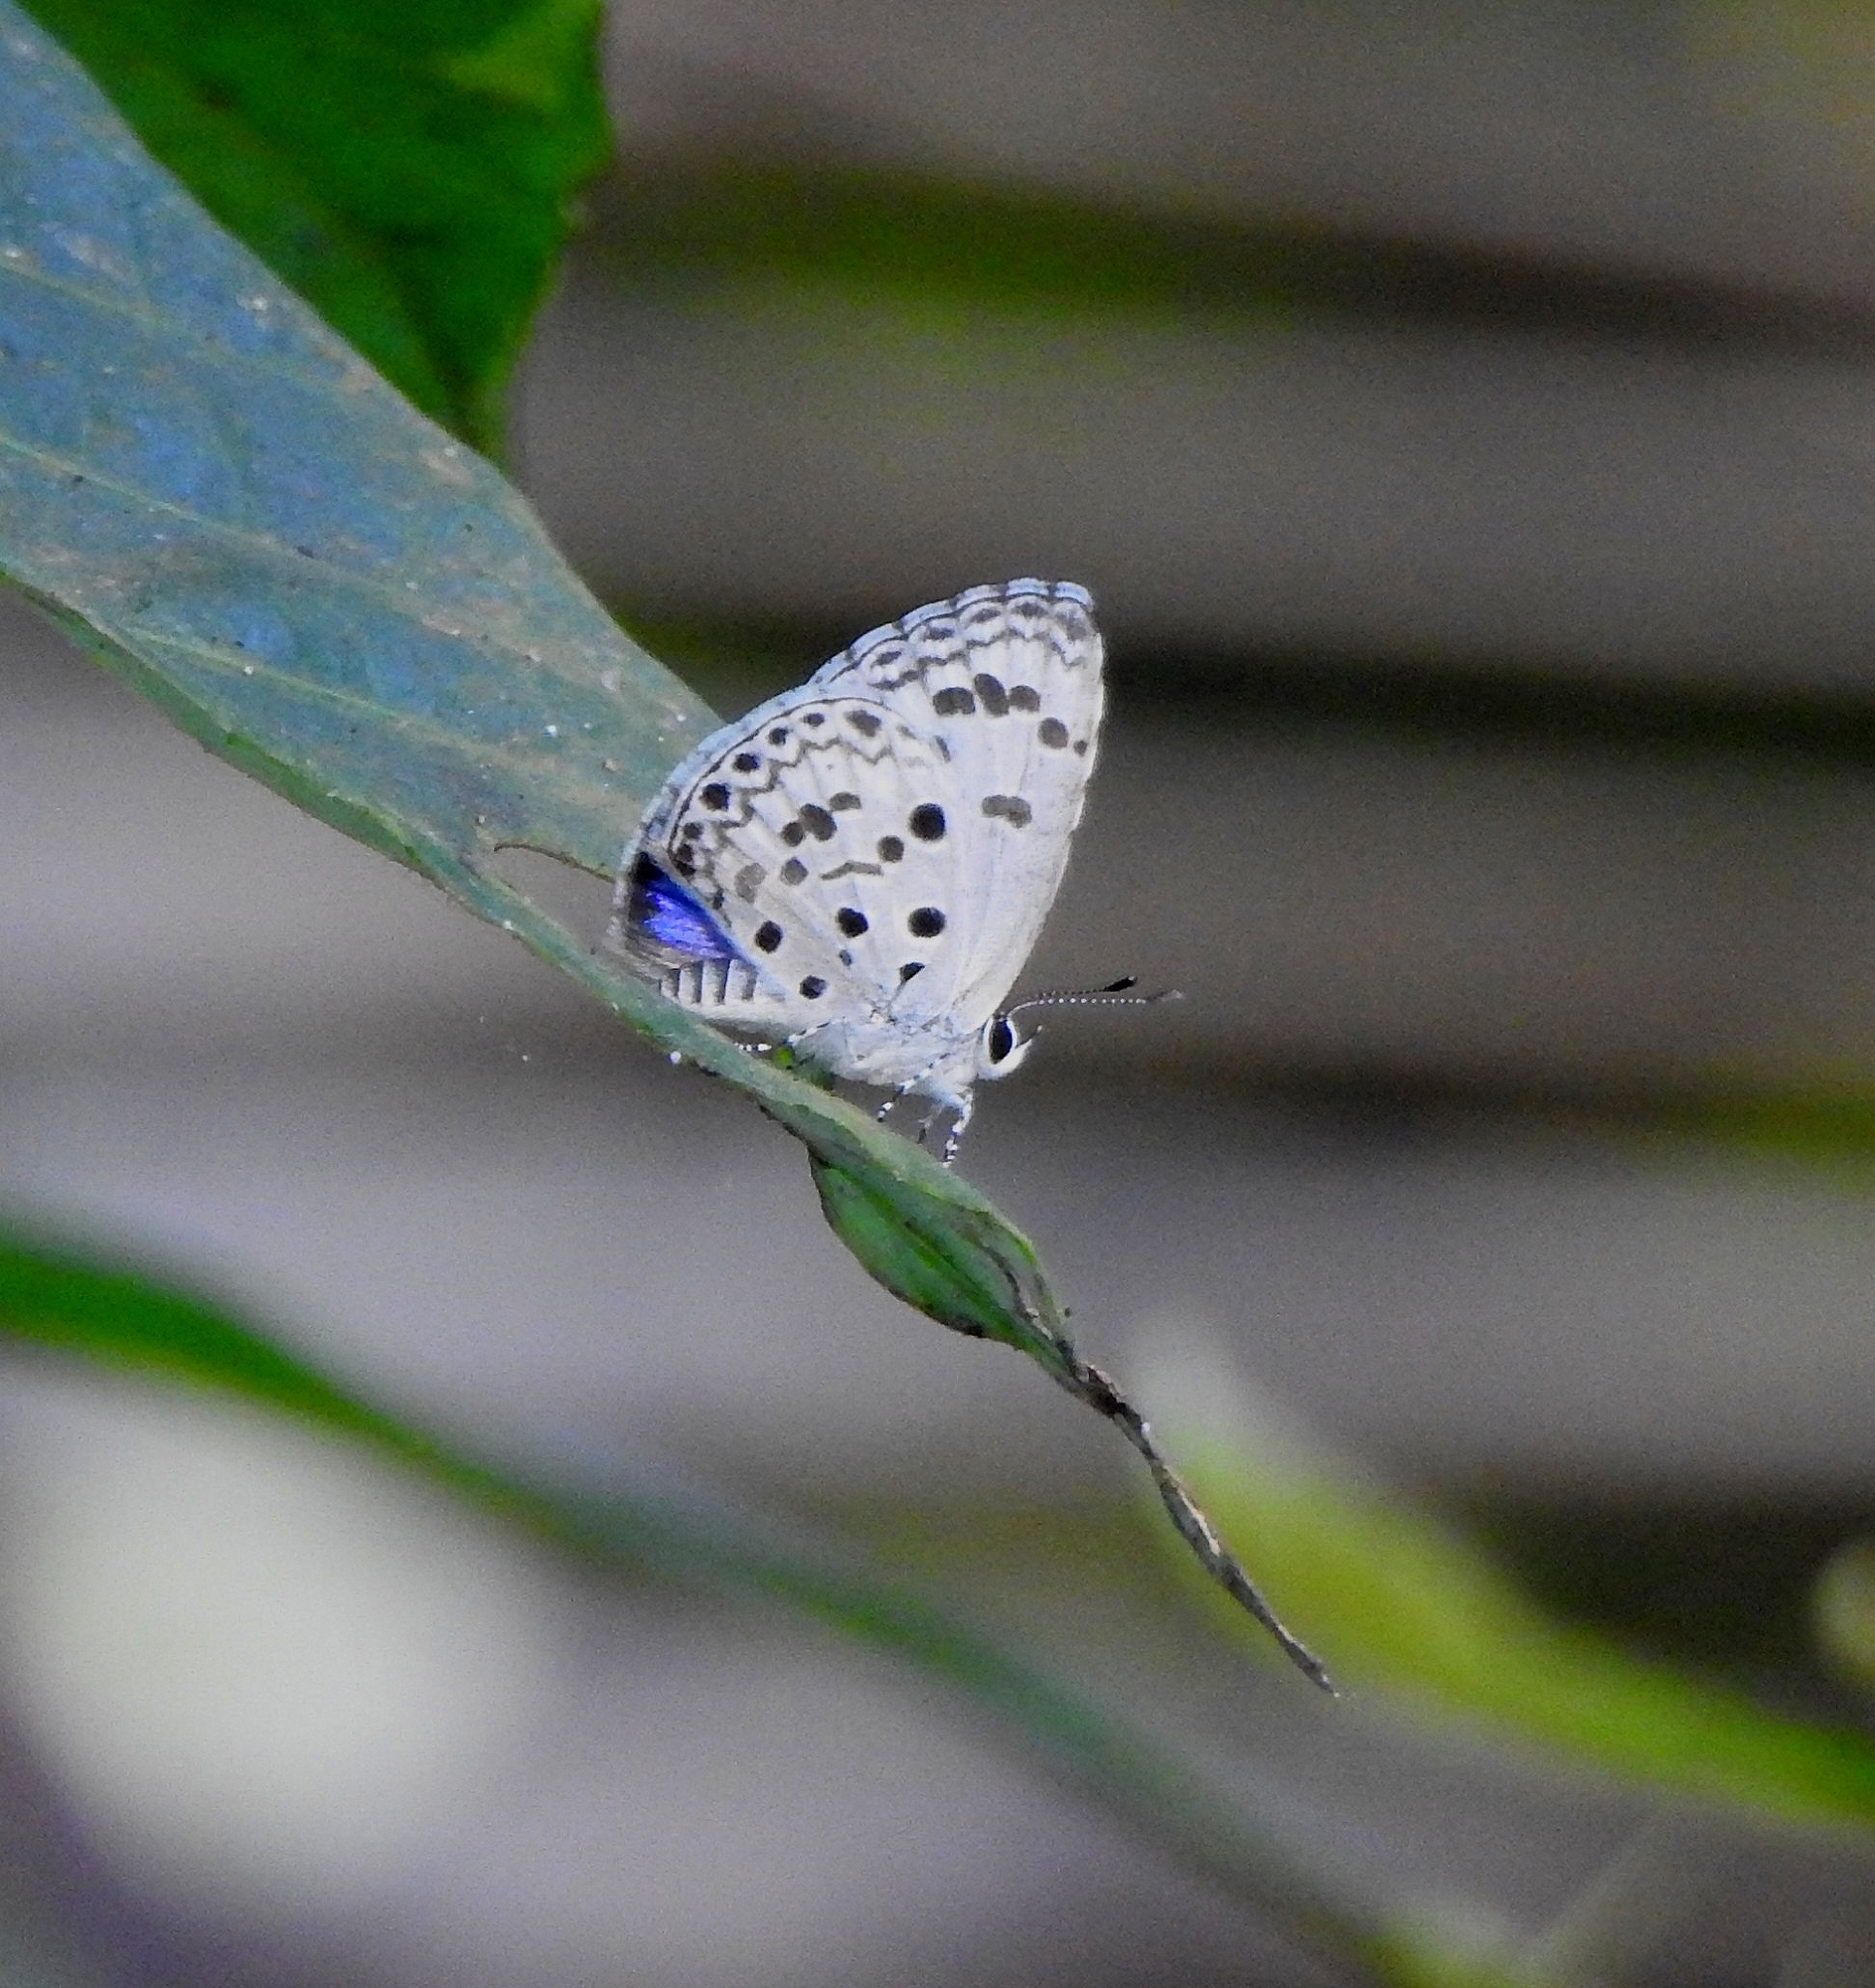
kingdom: Animalia
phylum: Arthropoda
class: Insecta
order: Lepidoptera
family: Lycaenidae
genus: Acytolepis
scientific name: Acytolepis puspa
